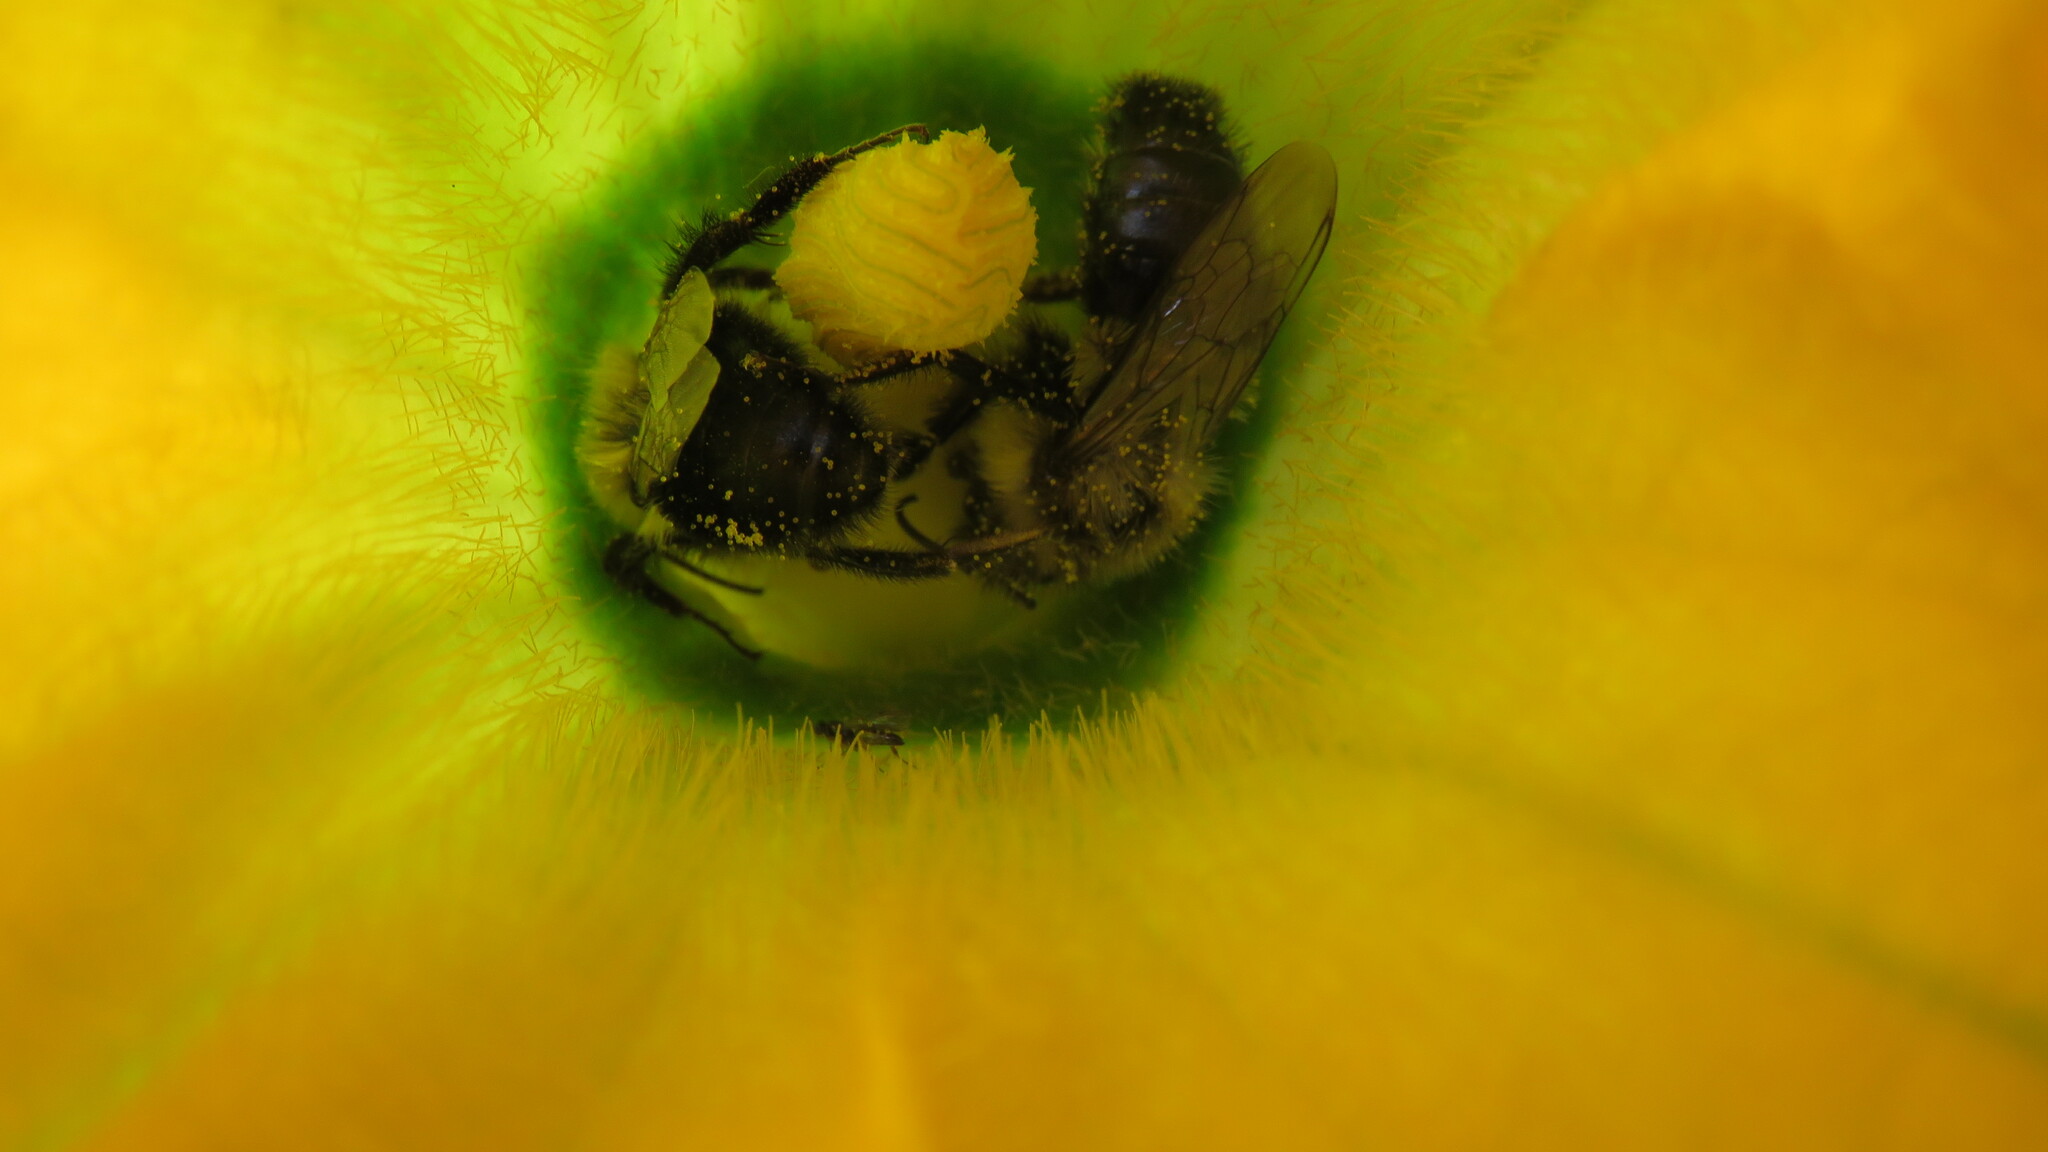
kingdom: Animalia
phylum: Arthropoda
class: Insecta
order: Hymenoptera
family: Apidae
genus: Bombus
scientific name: Bombus impatiens
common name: Common eastern bumble bee
